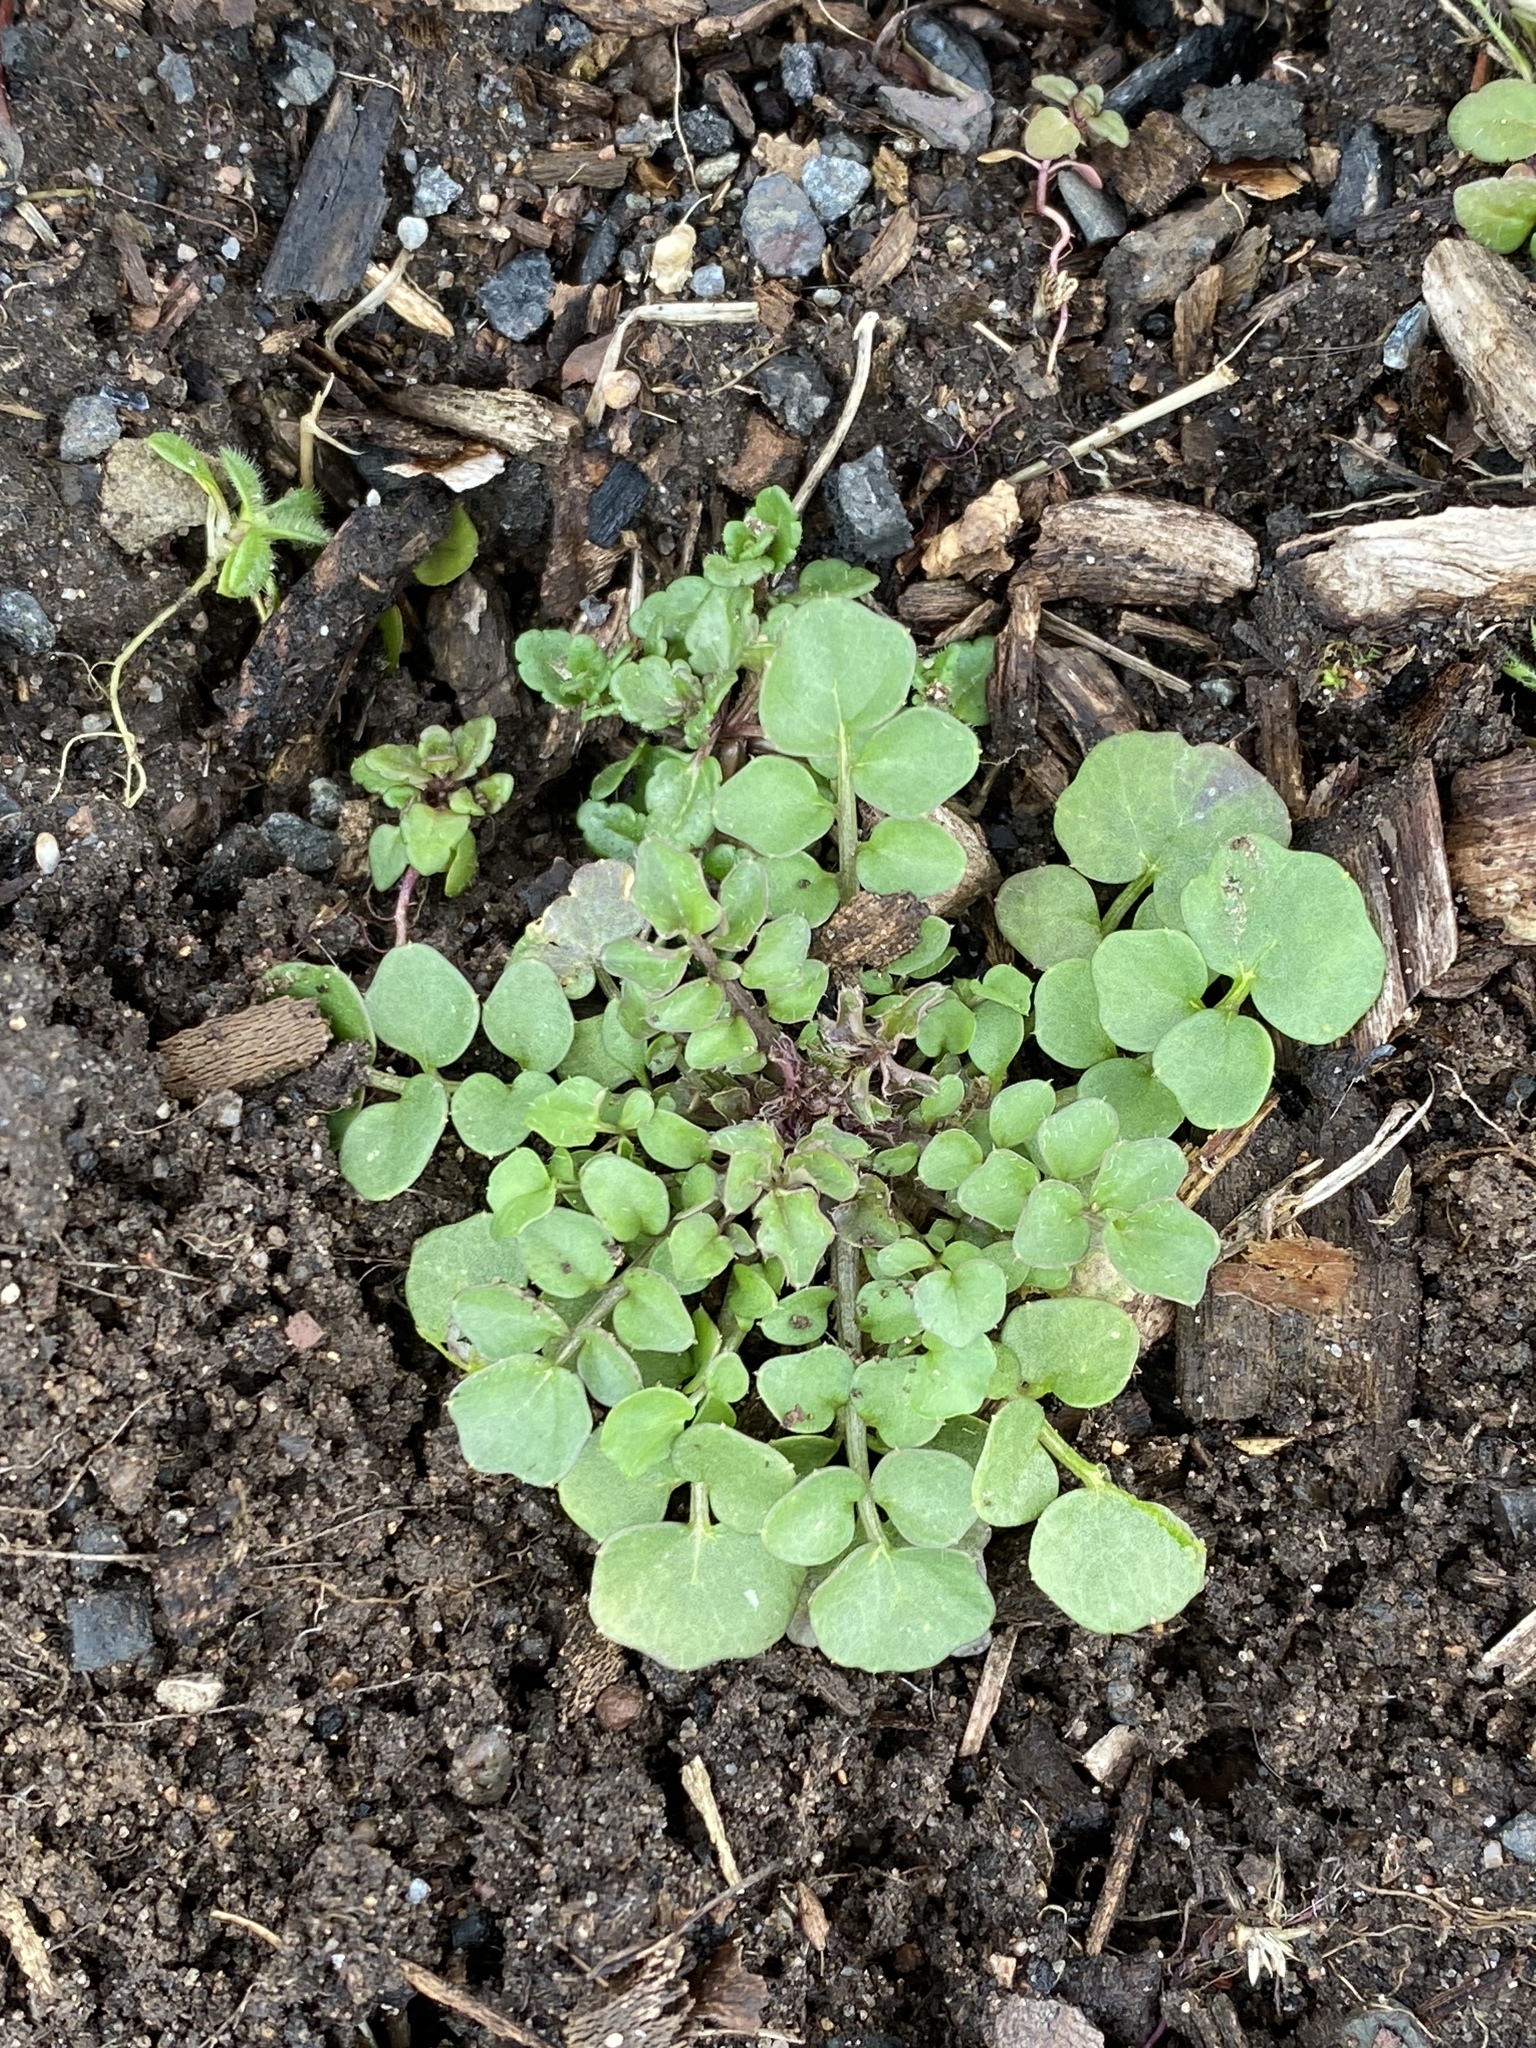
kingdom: Plantae
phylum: Tracheophyta
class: Magnoliopsida
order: Brassicales
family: Brassicaceae
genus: Cardamine
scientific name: Cardamine hirsuta
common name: Hairy bittercress
